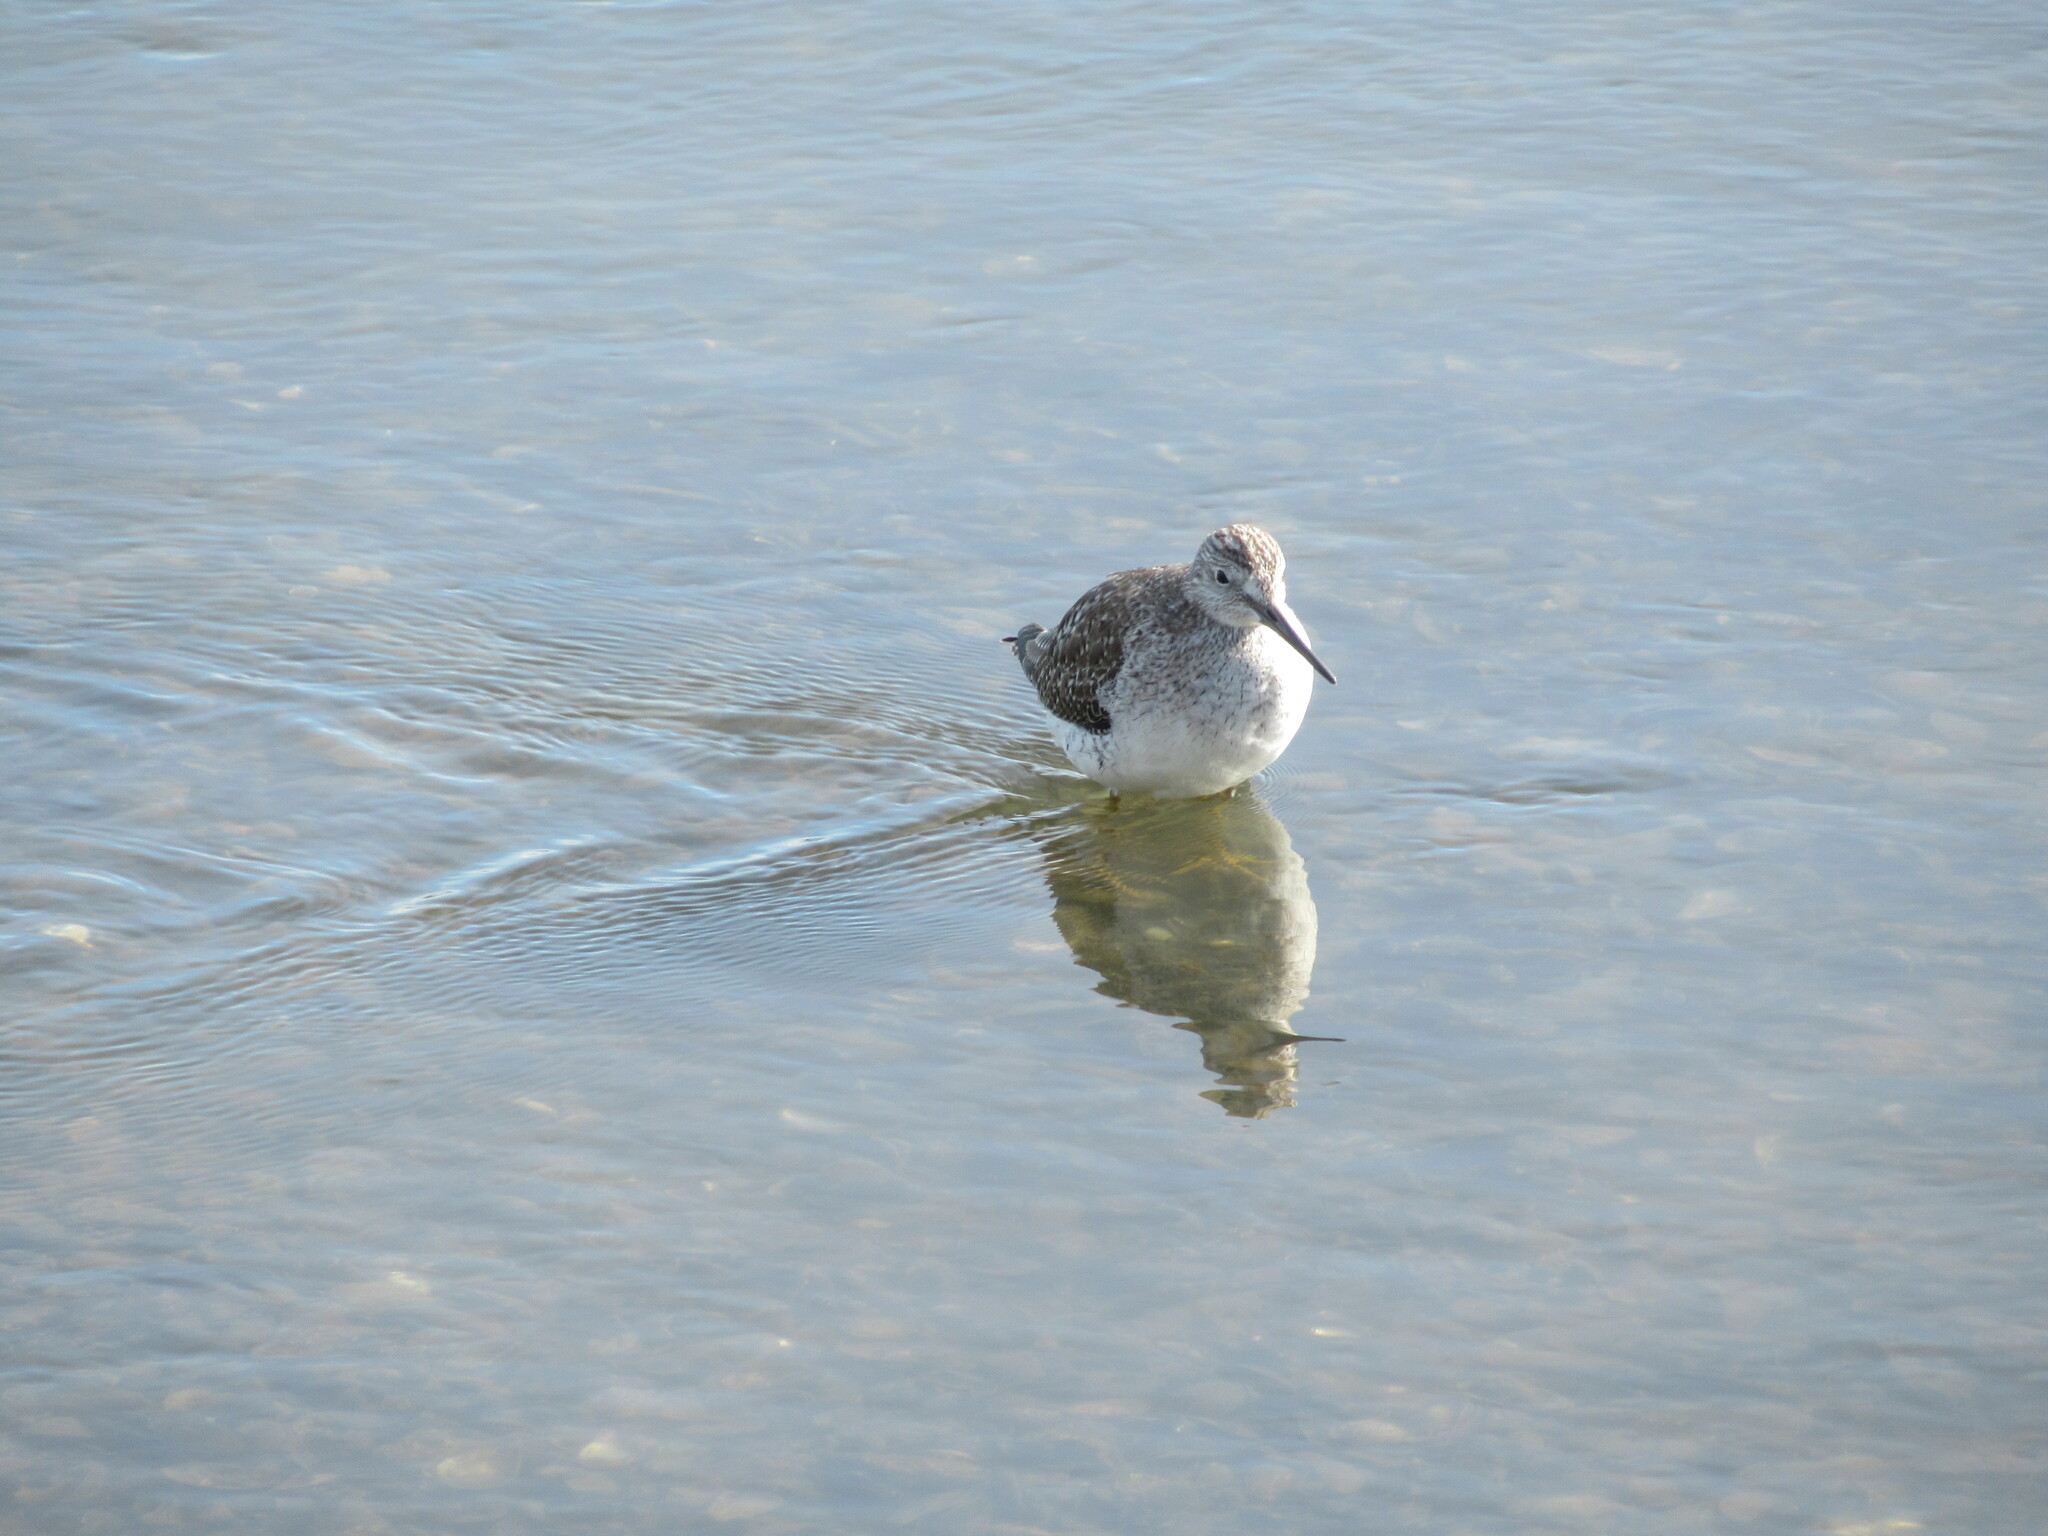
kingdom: Animalia
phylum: Chordata
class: Aves
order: Charadriiformes
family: Scolopacidae
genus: Tringa
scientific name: Tringa melanoleuca
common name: Greater yellowlegs
